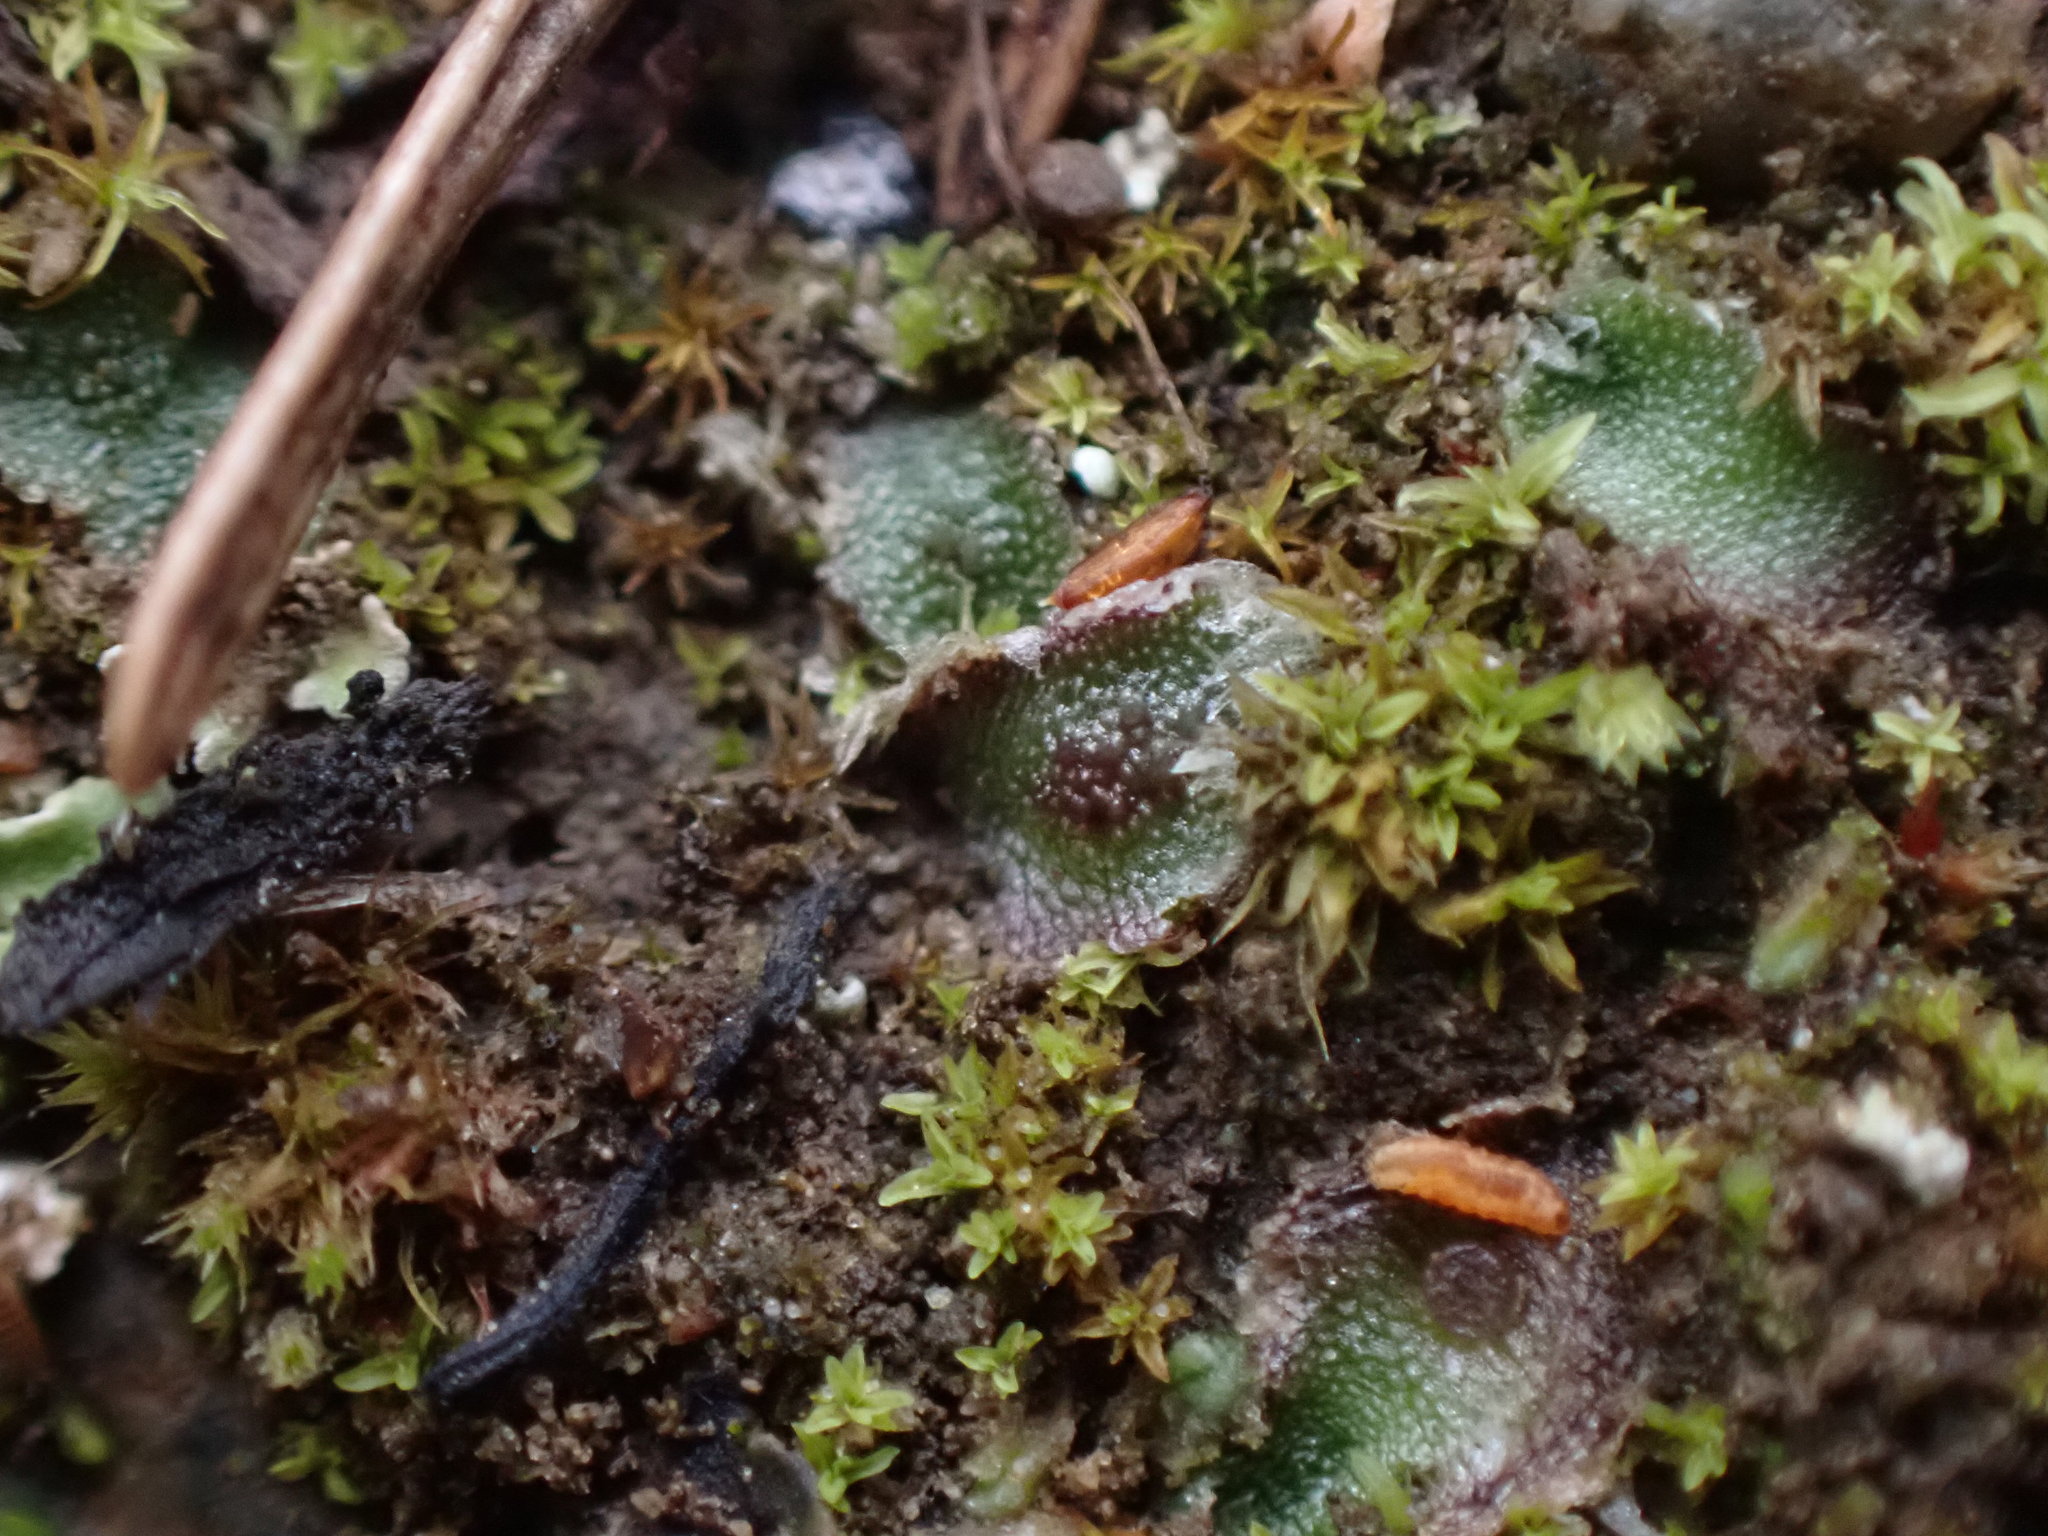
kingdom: Plantae
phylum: Marchantiophyta
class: Marchantiopsida
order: Marchantiales
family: Cleveaceae
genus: Clevea
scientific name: Clevea hyalina
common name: Hyaline liverwort
